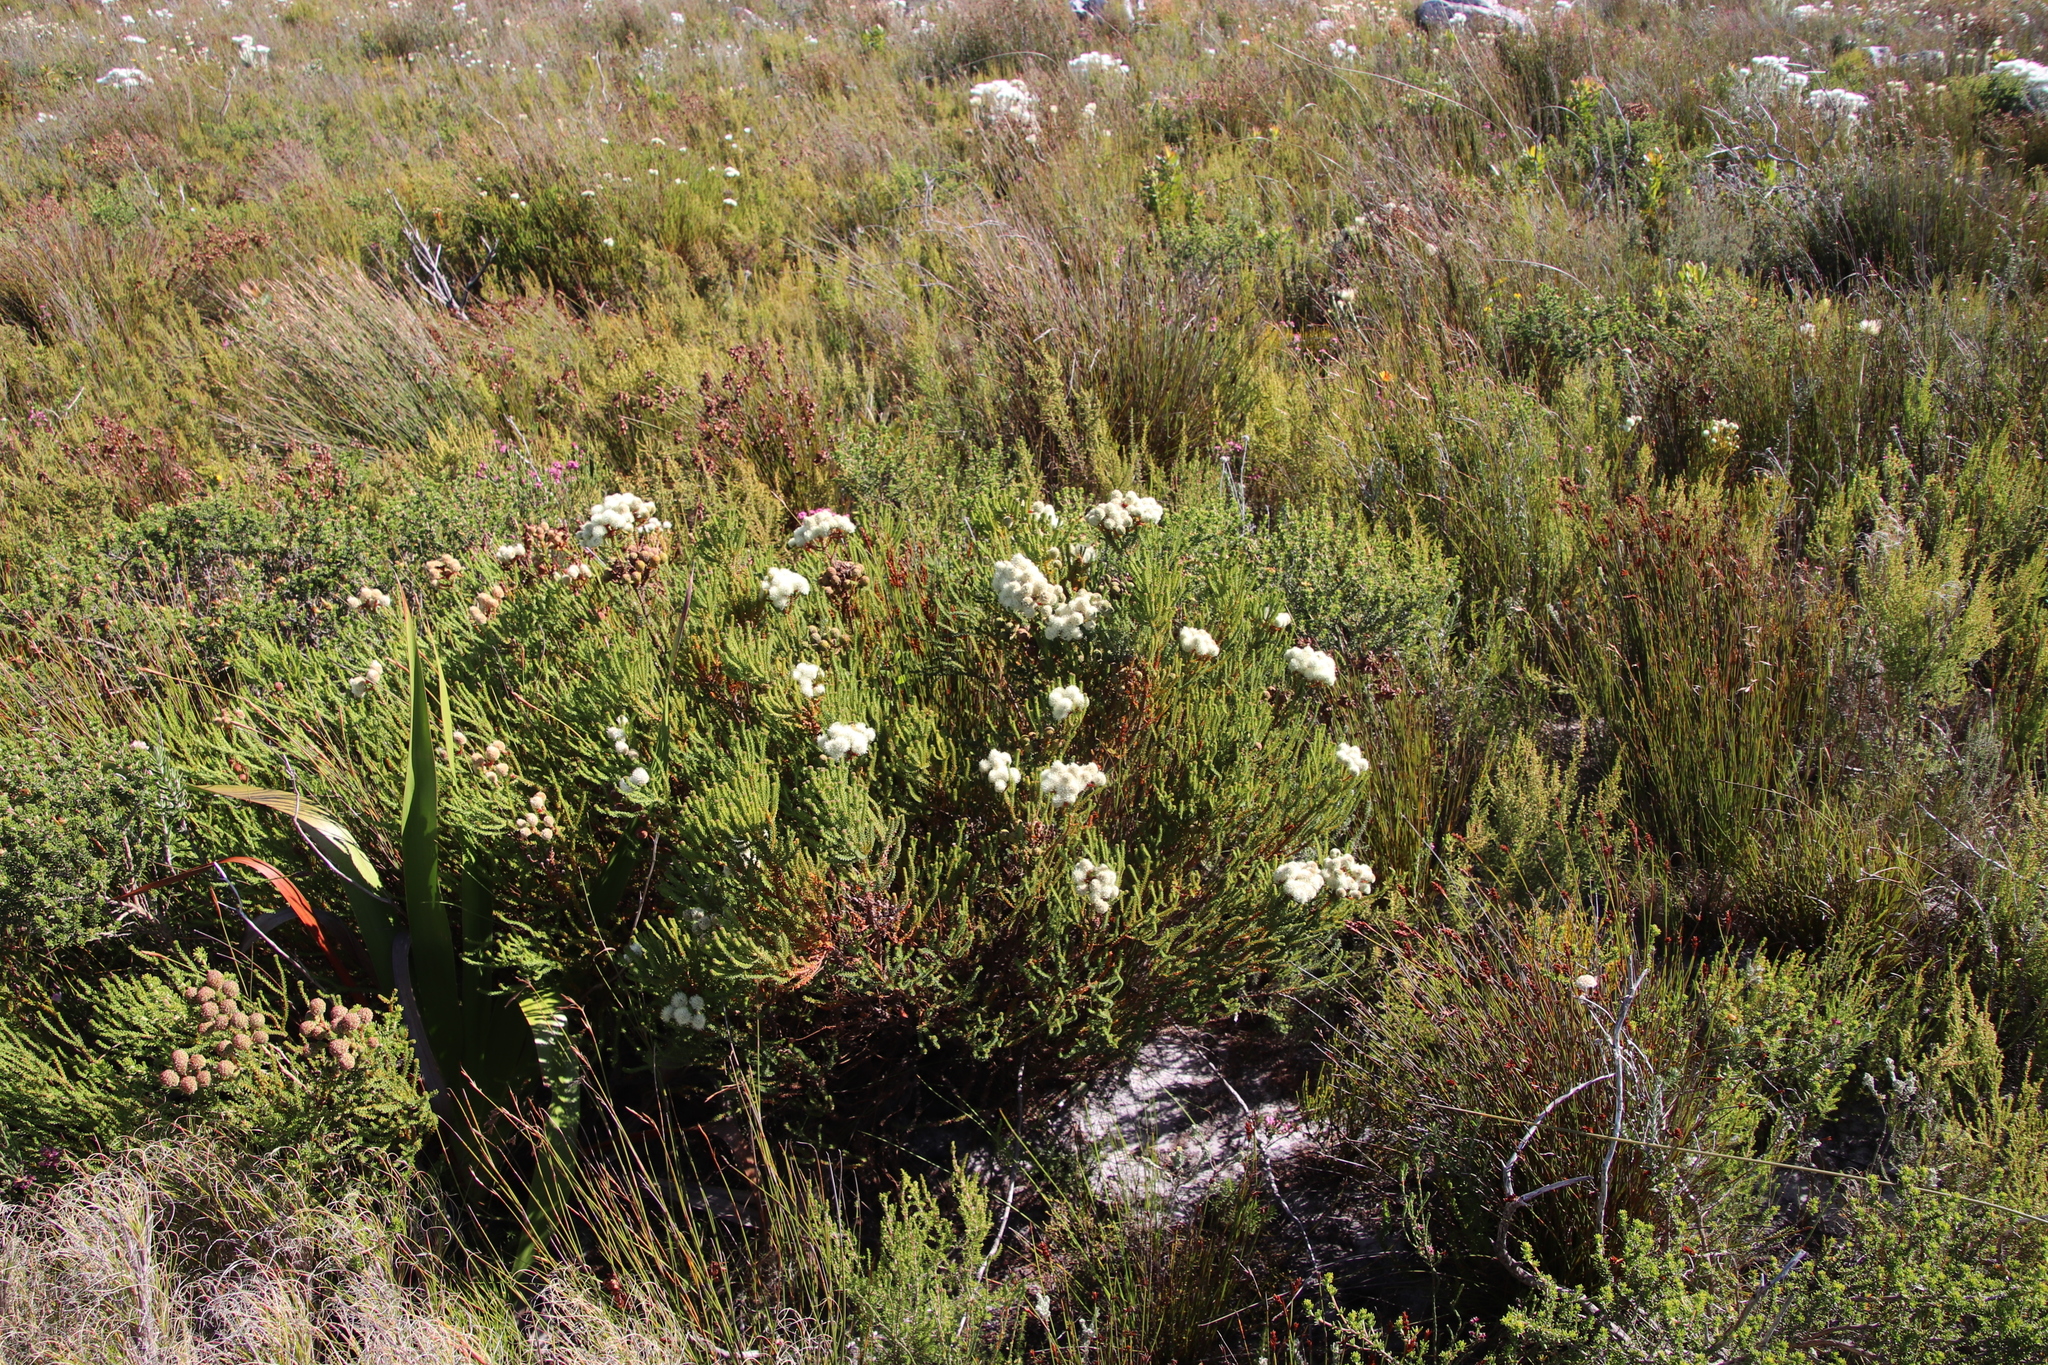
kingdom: Plantae
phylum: Tracheophyta
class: Magnoliopsida
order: Bruniales
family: Bruniaceae
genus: Berzelia
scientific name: Berzelia abrotanoides
